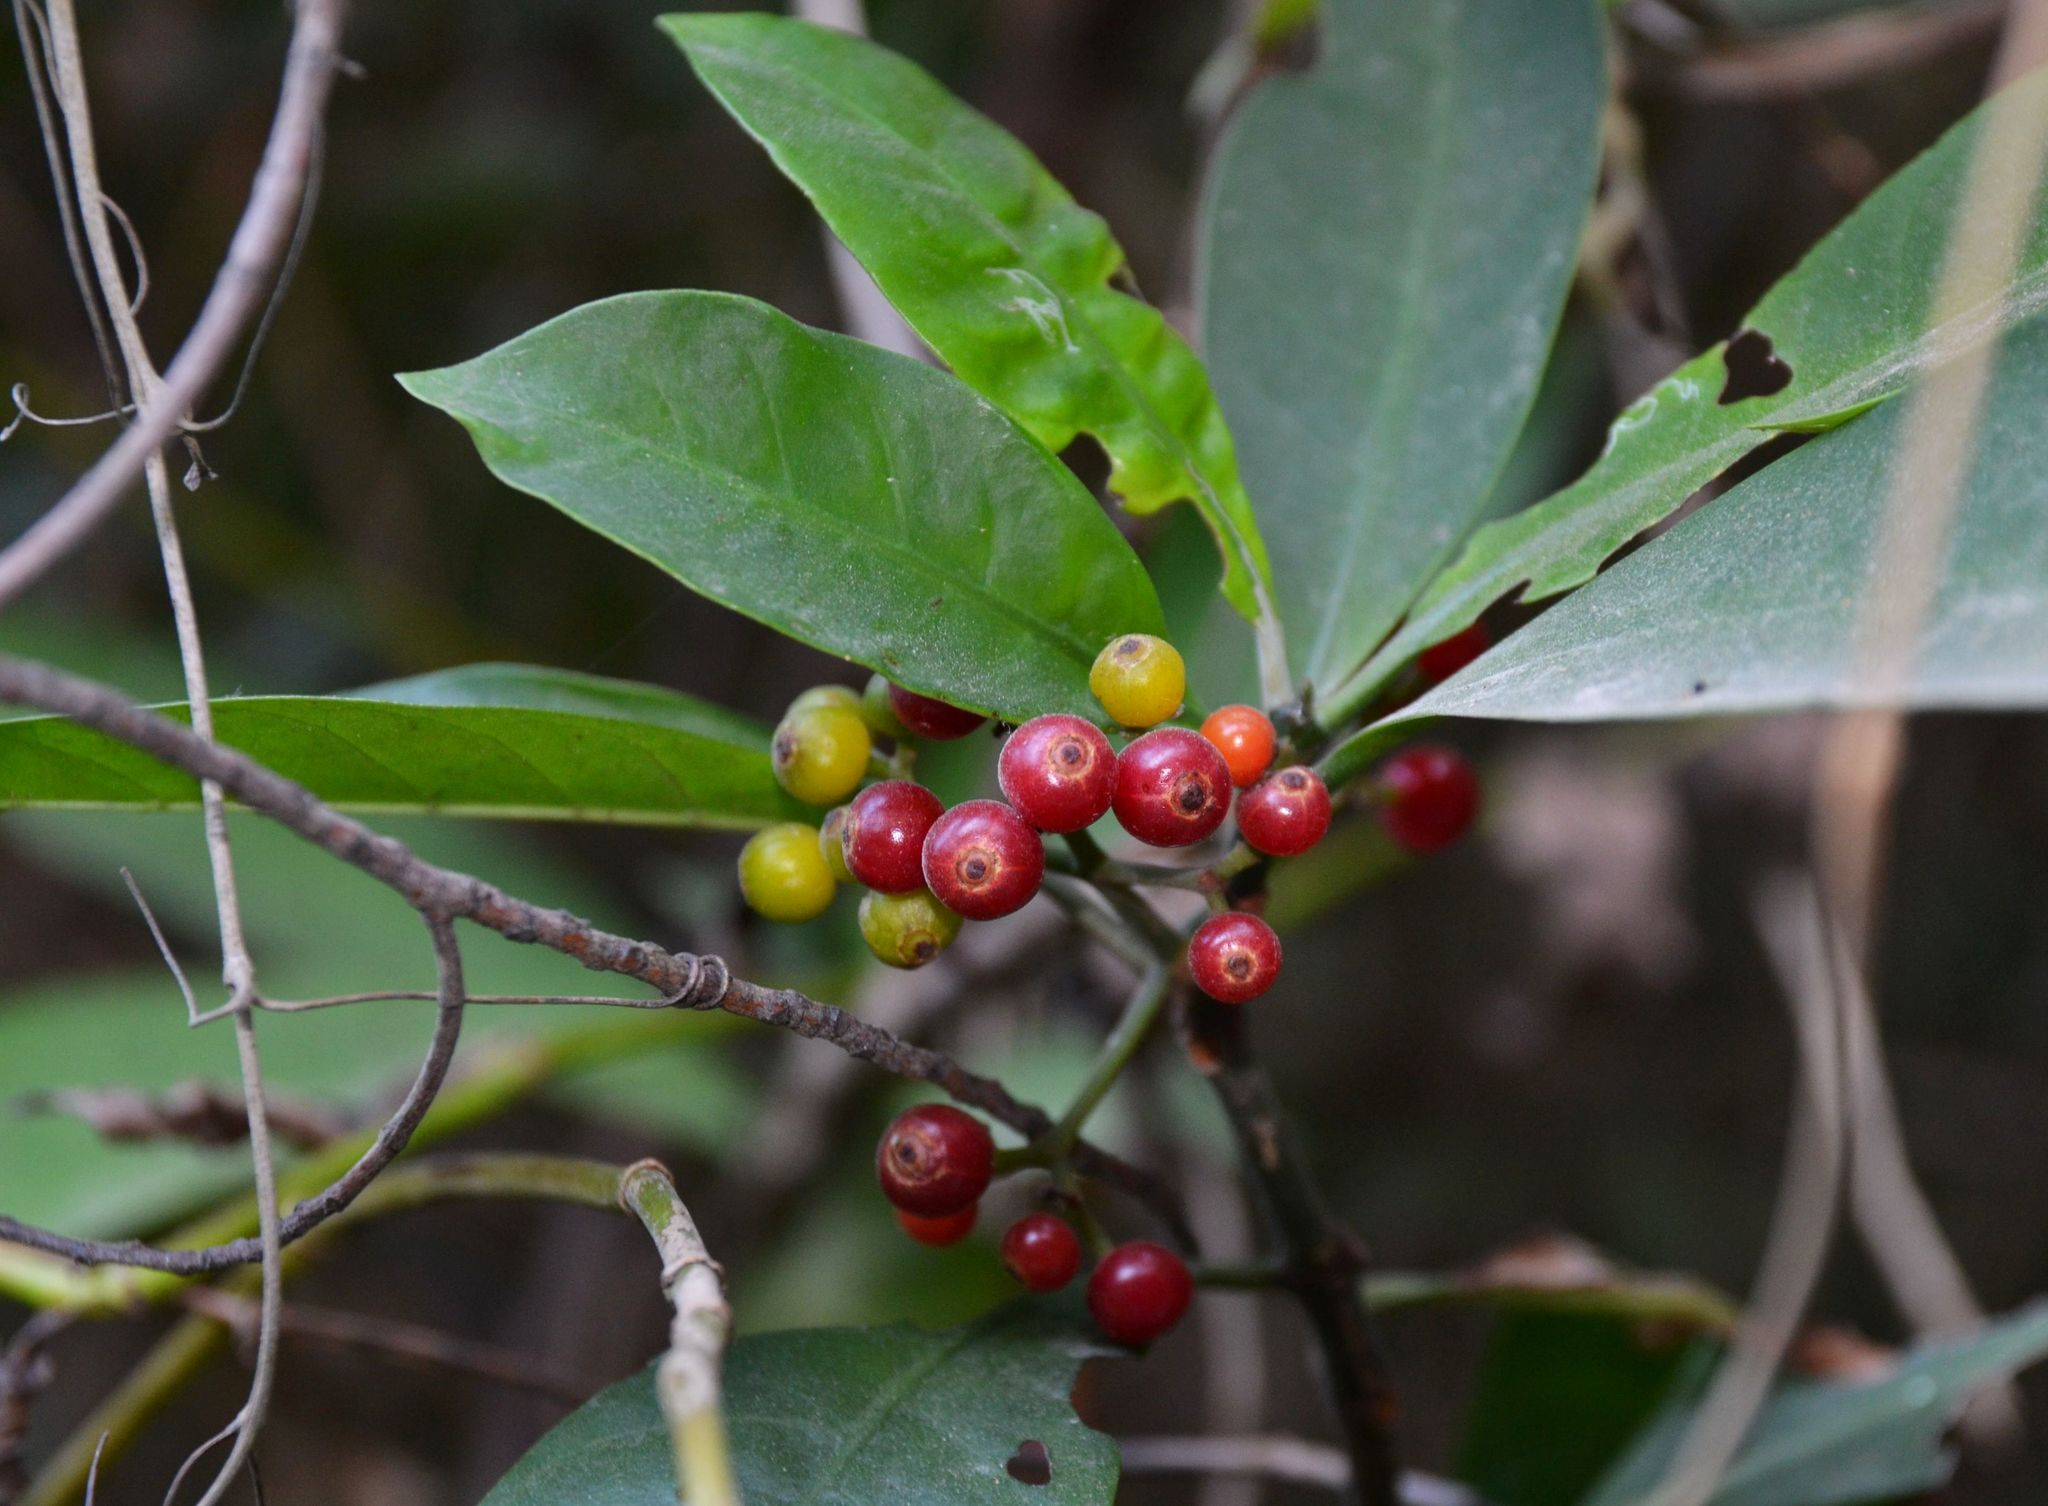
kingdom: Plantae
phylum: Tracheophyta
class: Magnoliopsida
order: Gentianales
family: Rubiaceae
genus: Psychotria
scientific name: Psychotria asiatica
